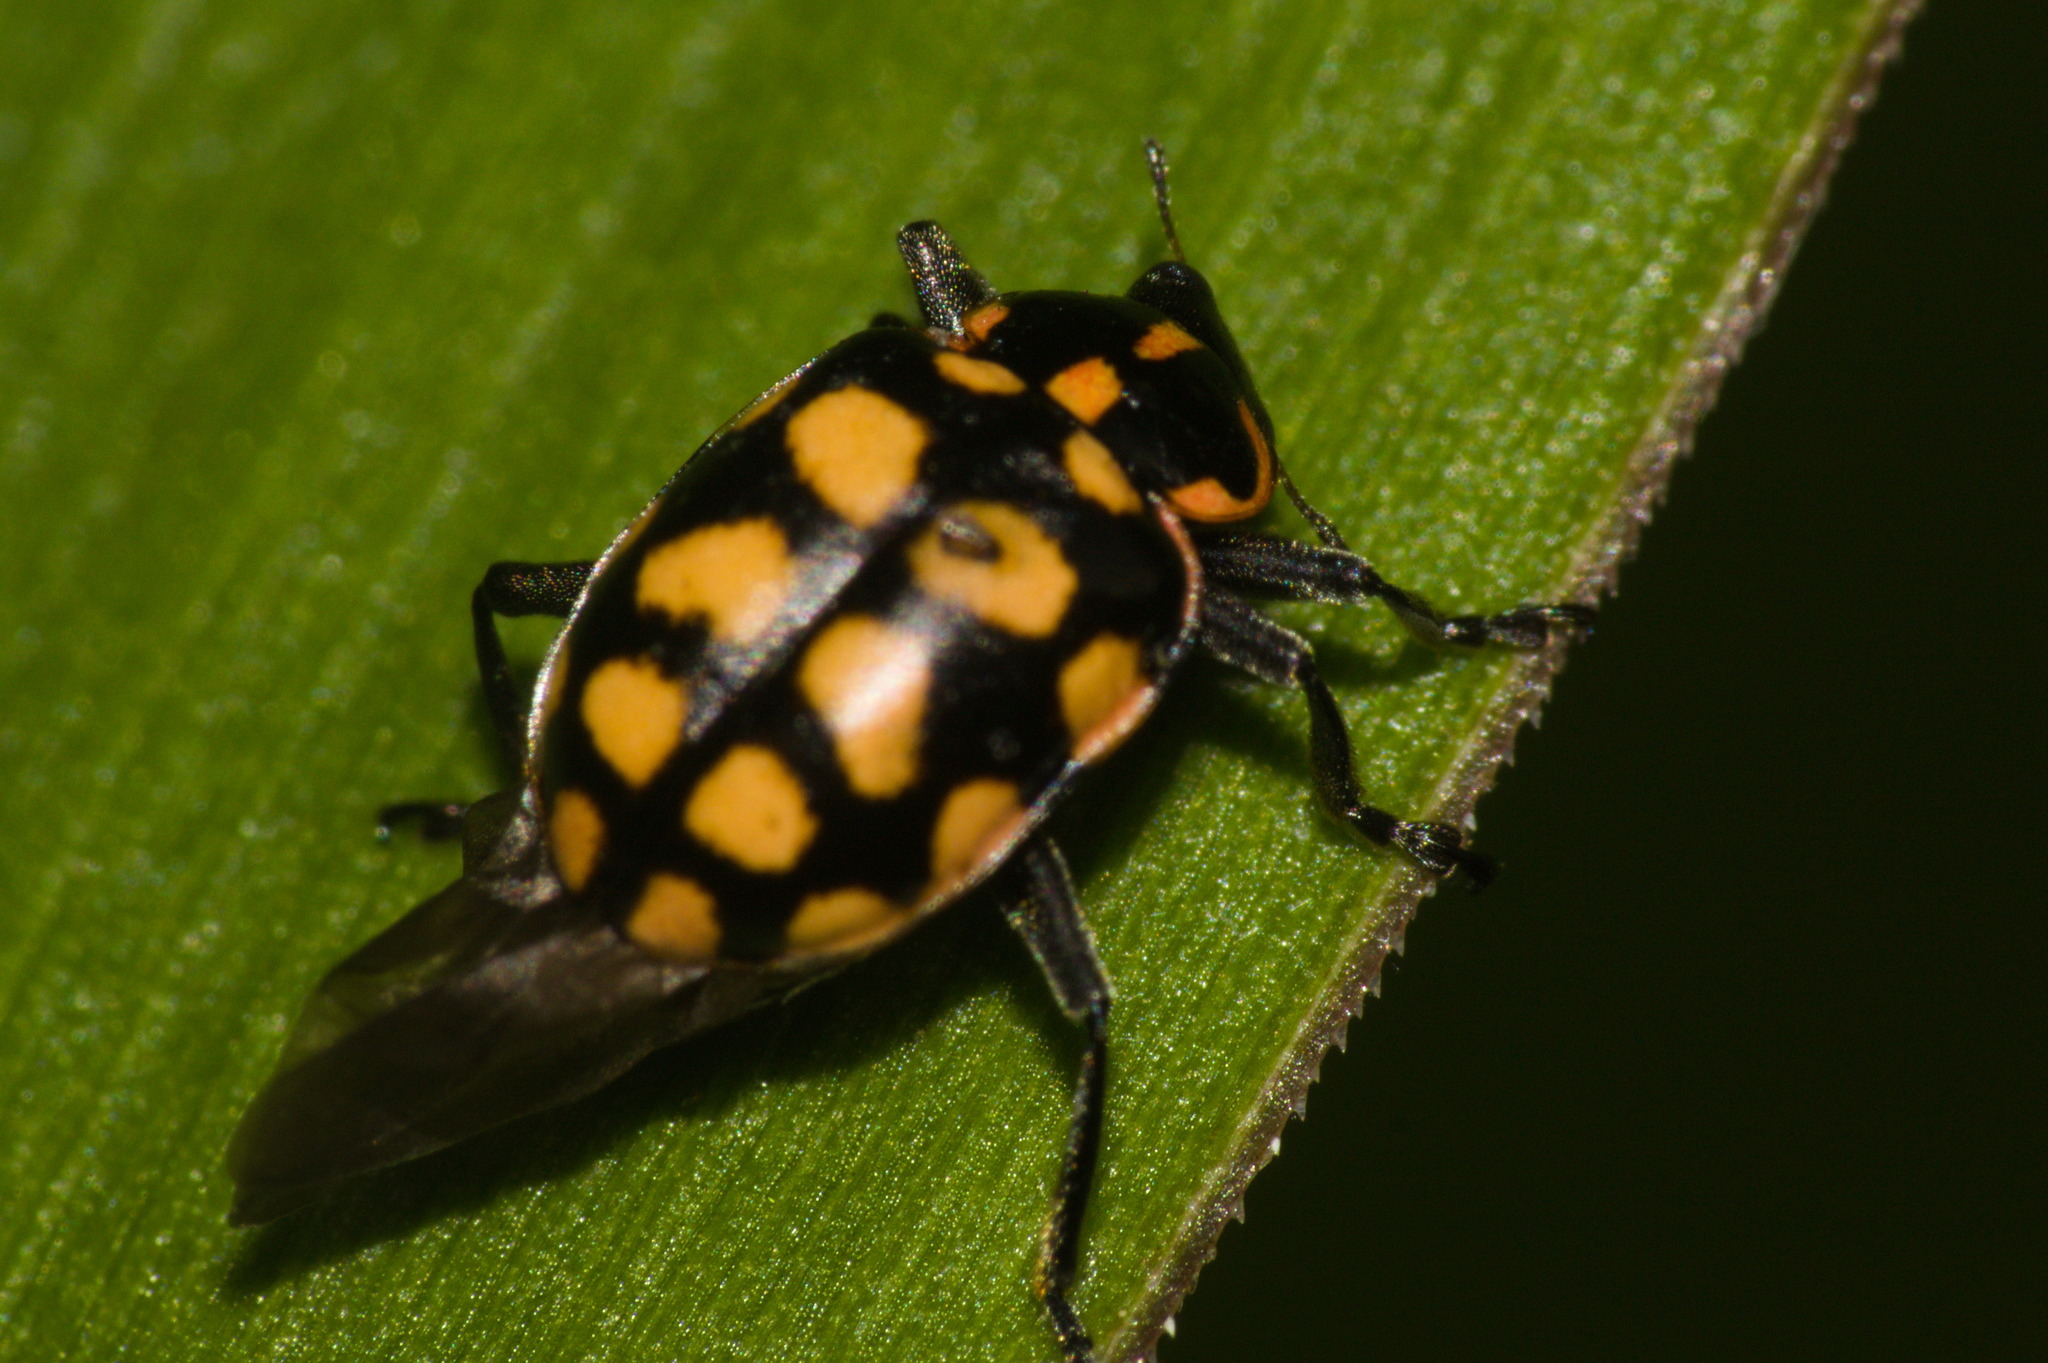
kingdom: Animalia
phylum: Arthropoda
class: Insecta
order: Coleoptera
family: Coccinellidae
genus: Coleomegilla
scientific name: Coleomegilla
